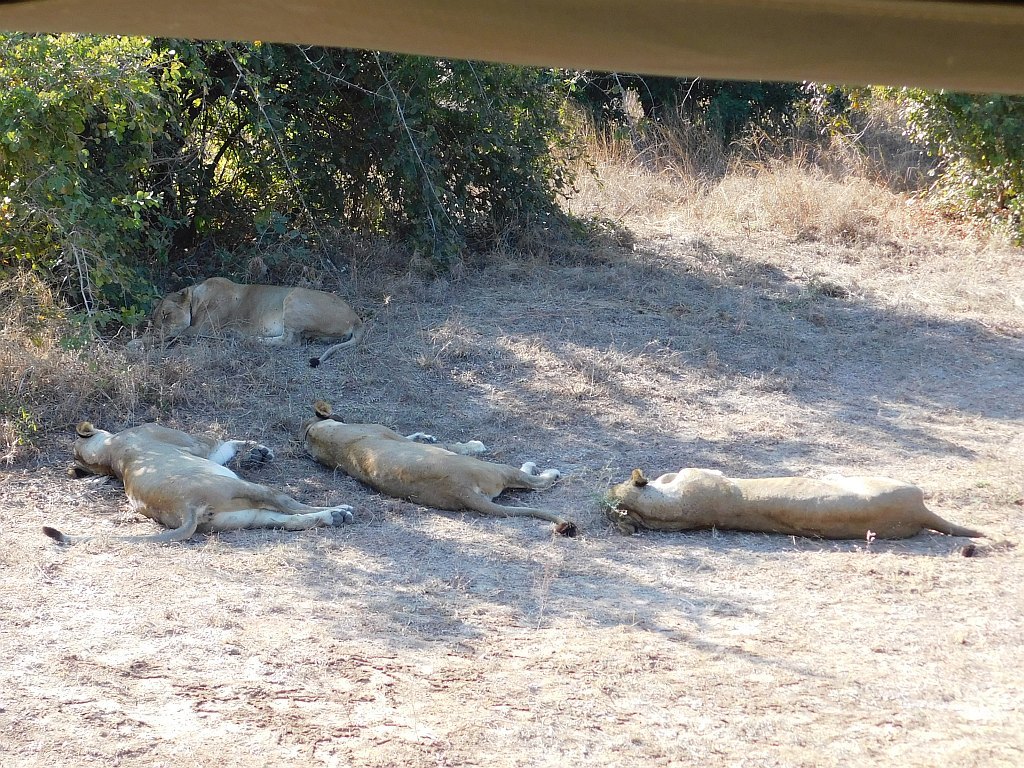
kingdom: Animalia
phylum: Chordata
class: Mammalia
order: Carnivora
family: Felidae
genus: Panthera
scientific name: Panthera leo
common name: Lion
